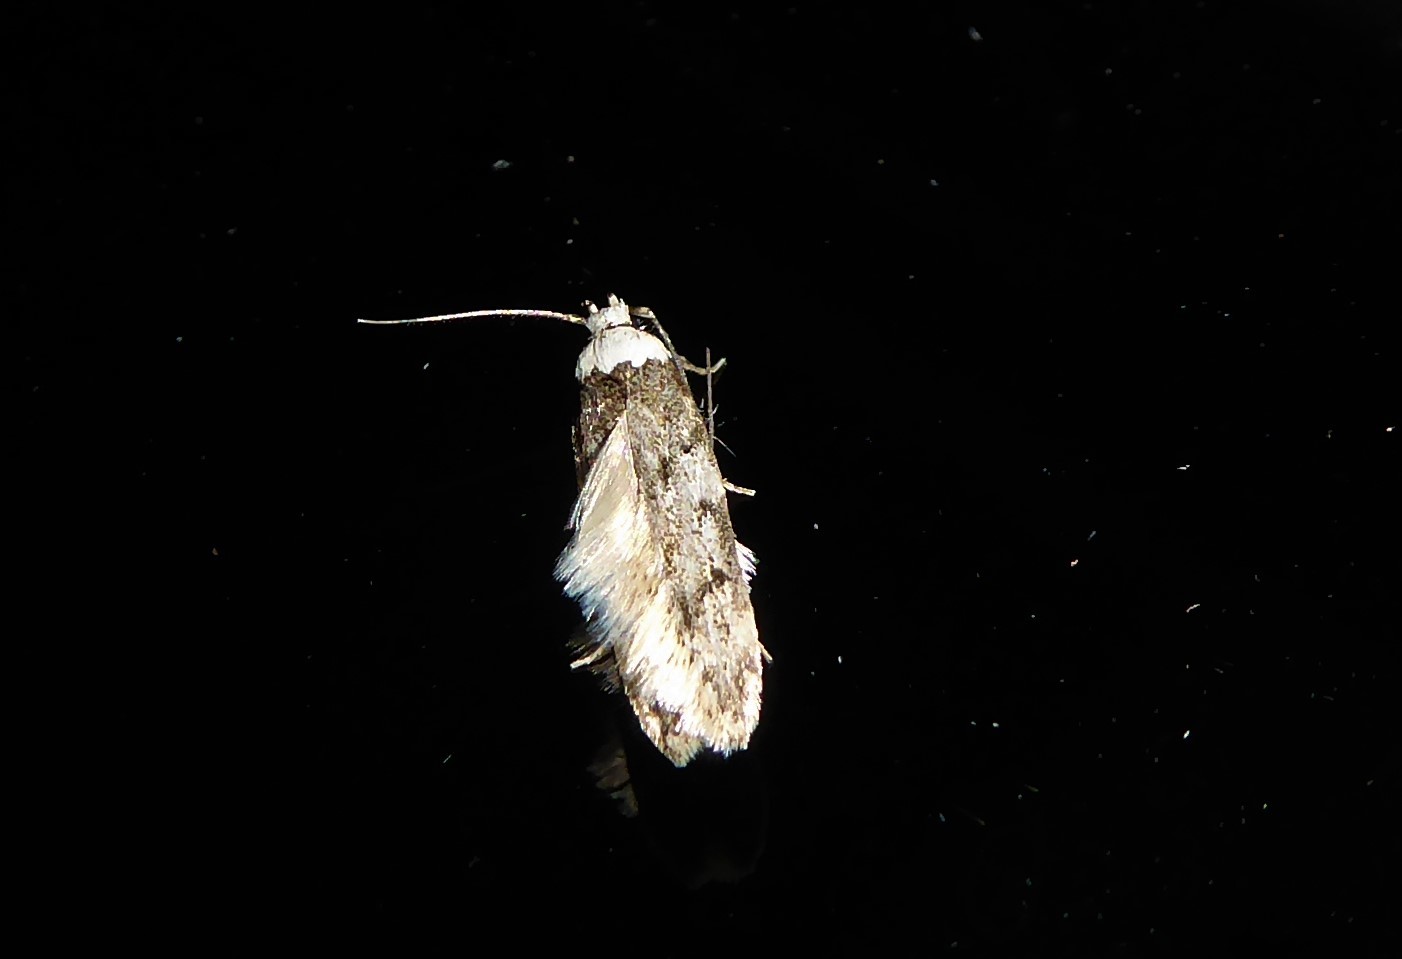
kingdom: Animalia
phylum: Arthropoda
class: Insecta
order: Lepidoptera
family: Oecophoridae
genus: Endrosis
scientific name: Endrosis sarcitrella
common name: White-shouldered house moth
